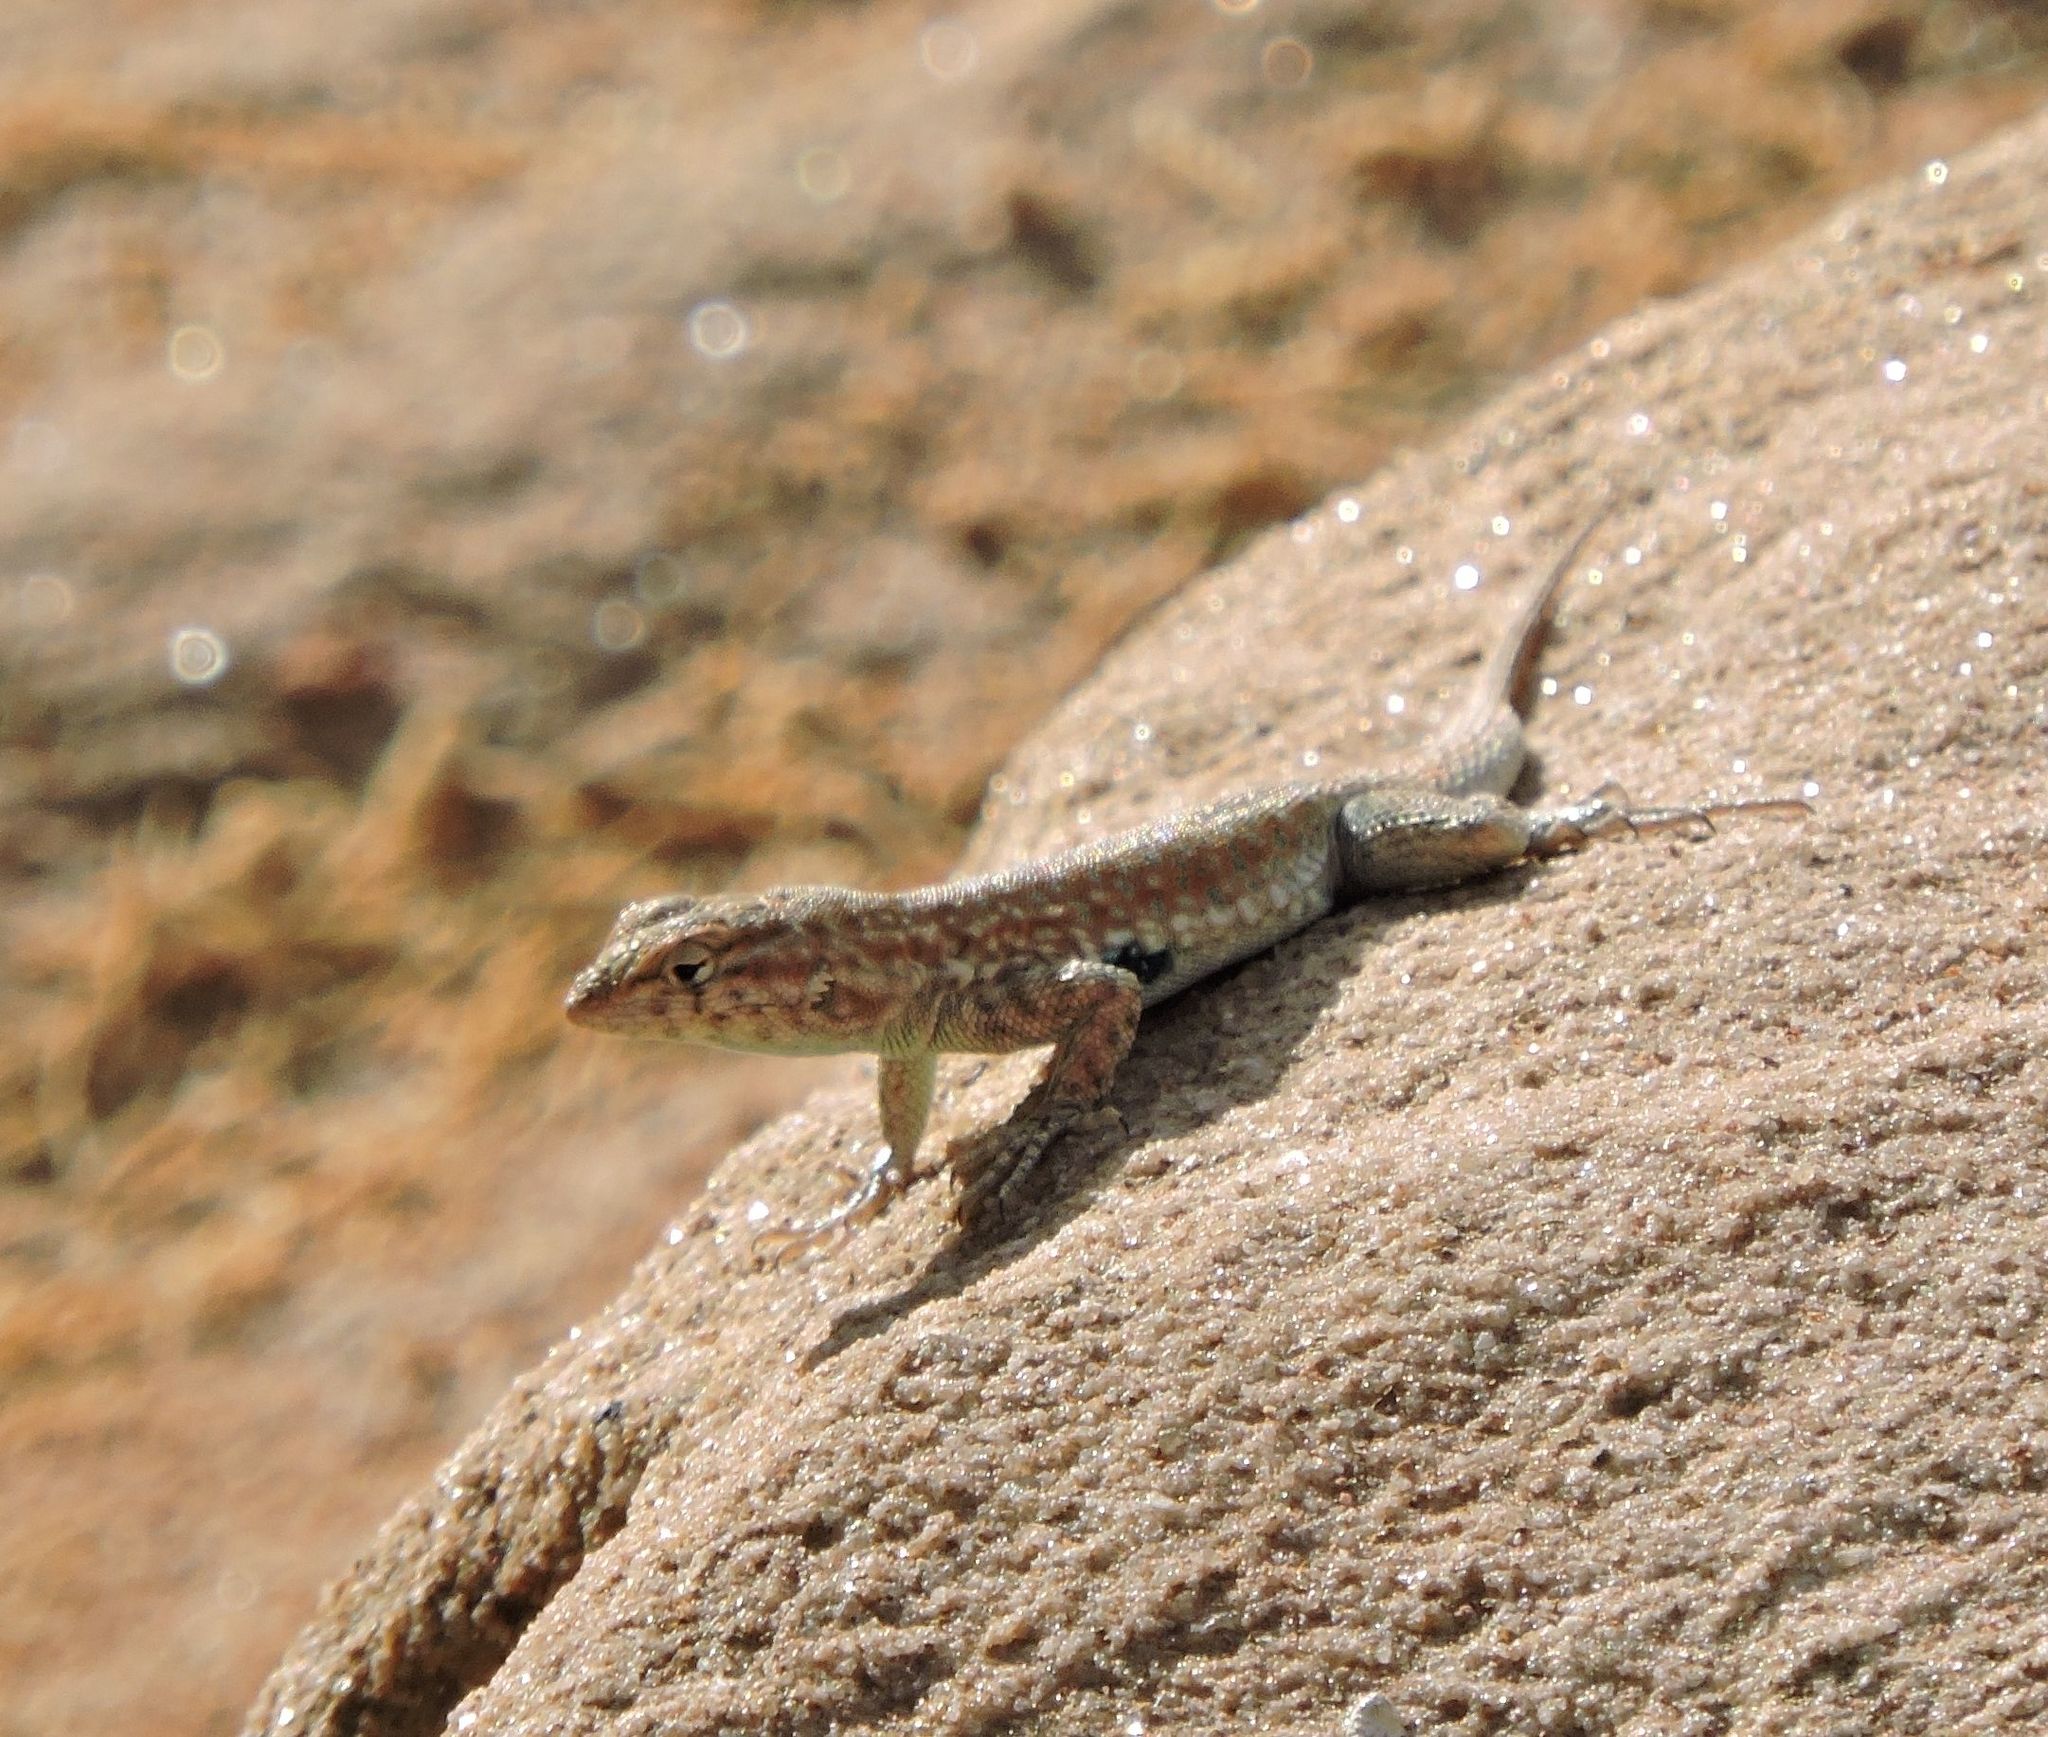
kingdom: Animalia
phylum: Chordata
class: Squamata
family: Phrynosomatidae
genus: Uta
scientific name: Uta stansburiana
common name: Side-blotched lizard
